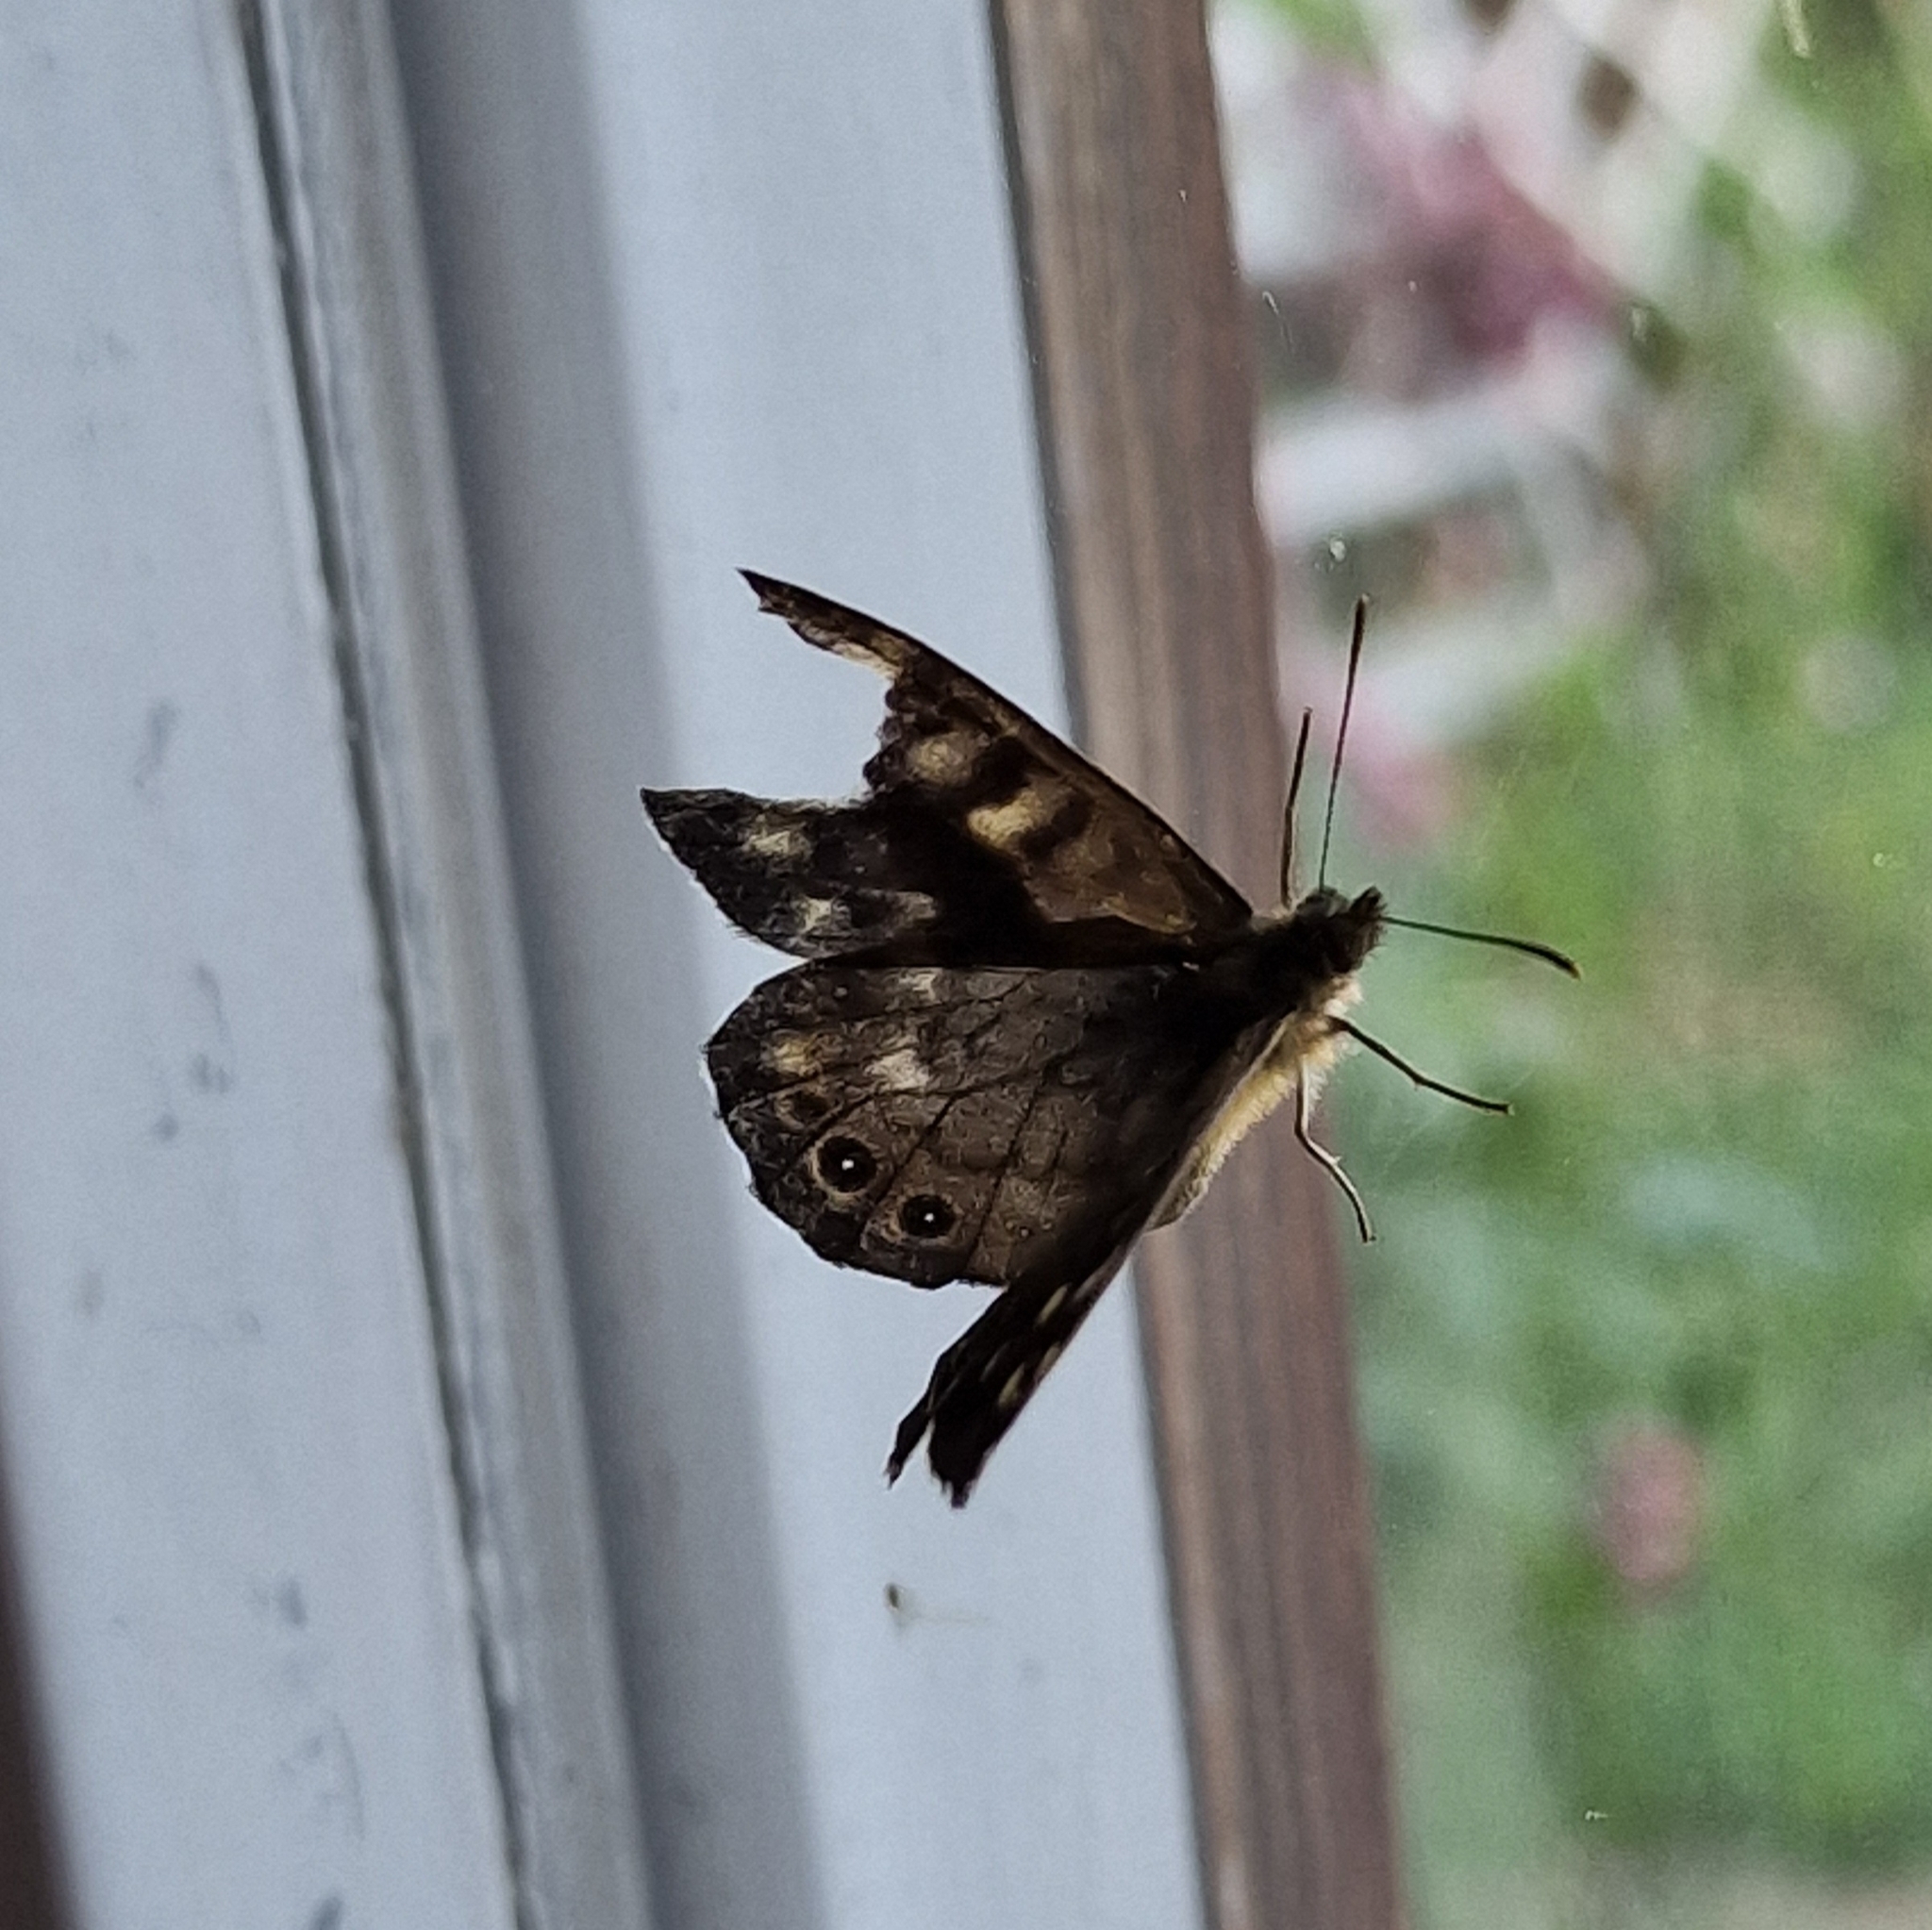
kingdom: Animalia
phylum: Arthropoda
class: Insecta
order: Lepidoptera
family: Nymphalidae
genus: Pararge
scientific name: Pararge aegeria
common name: Speckled wood
